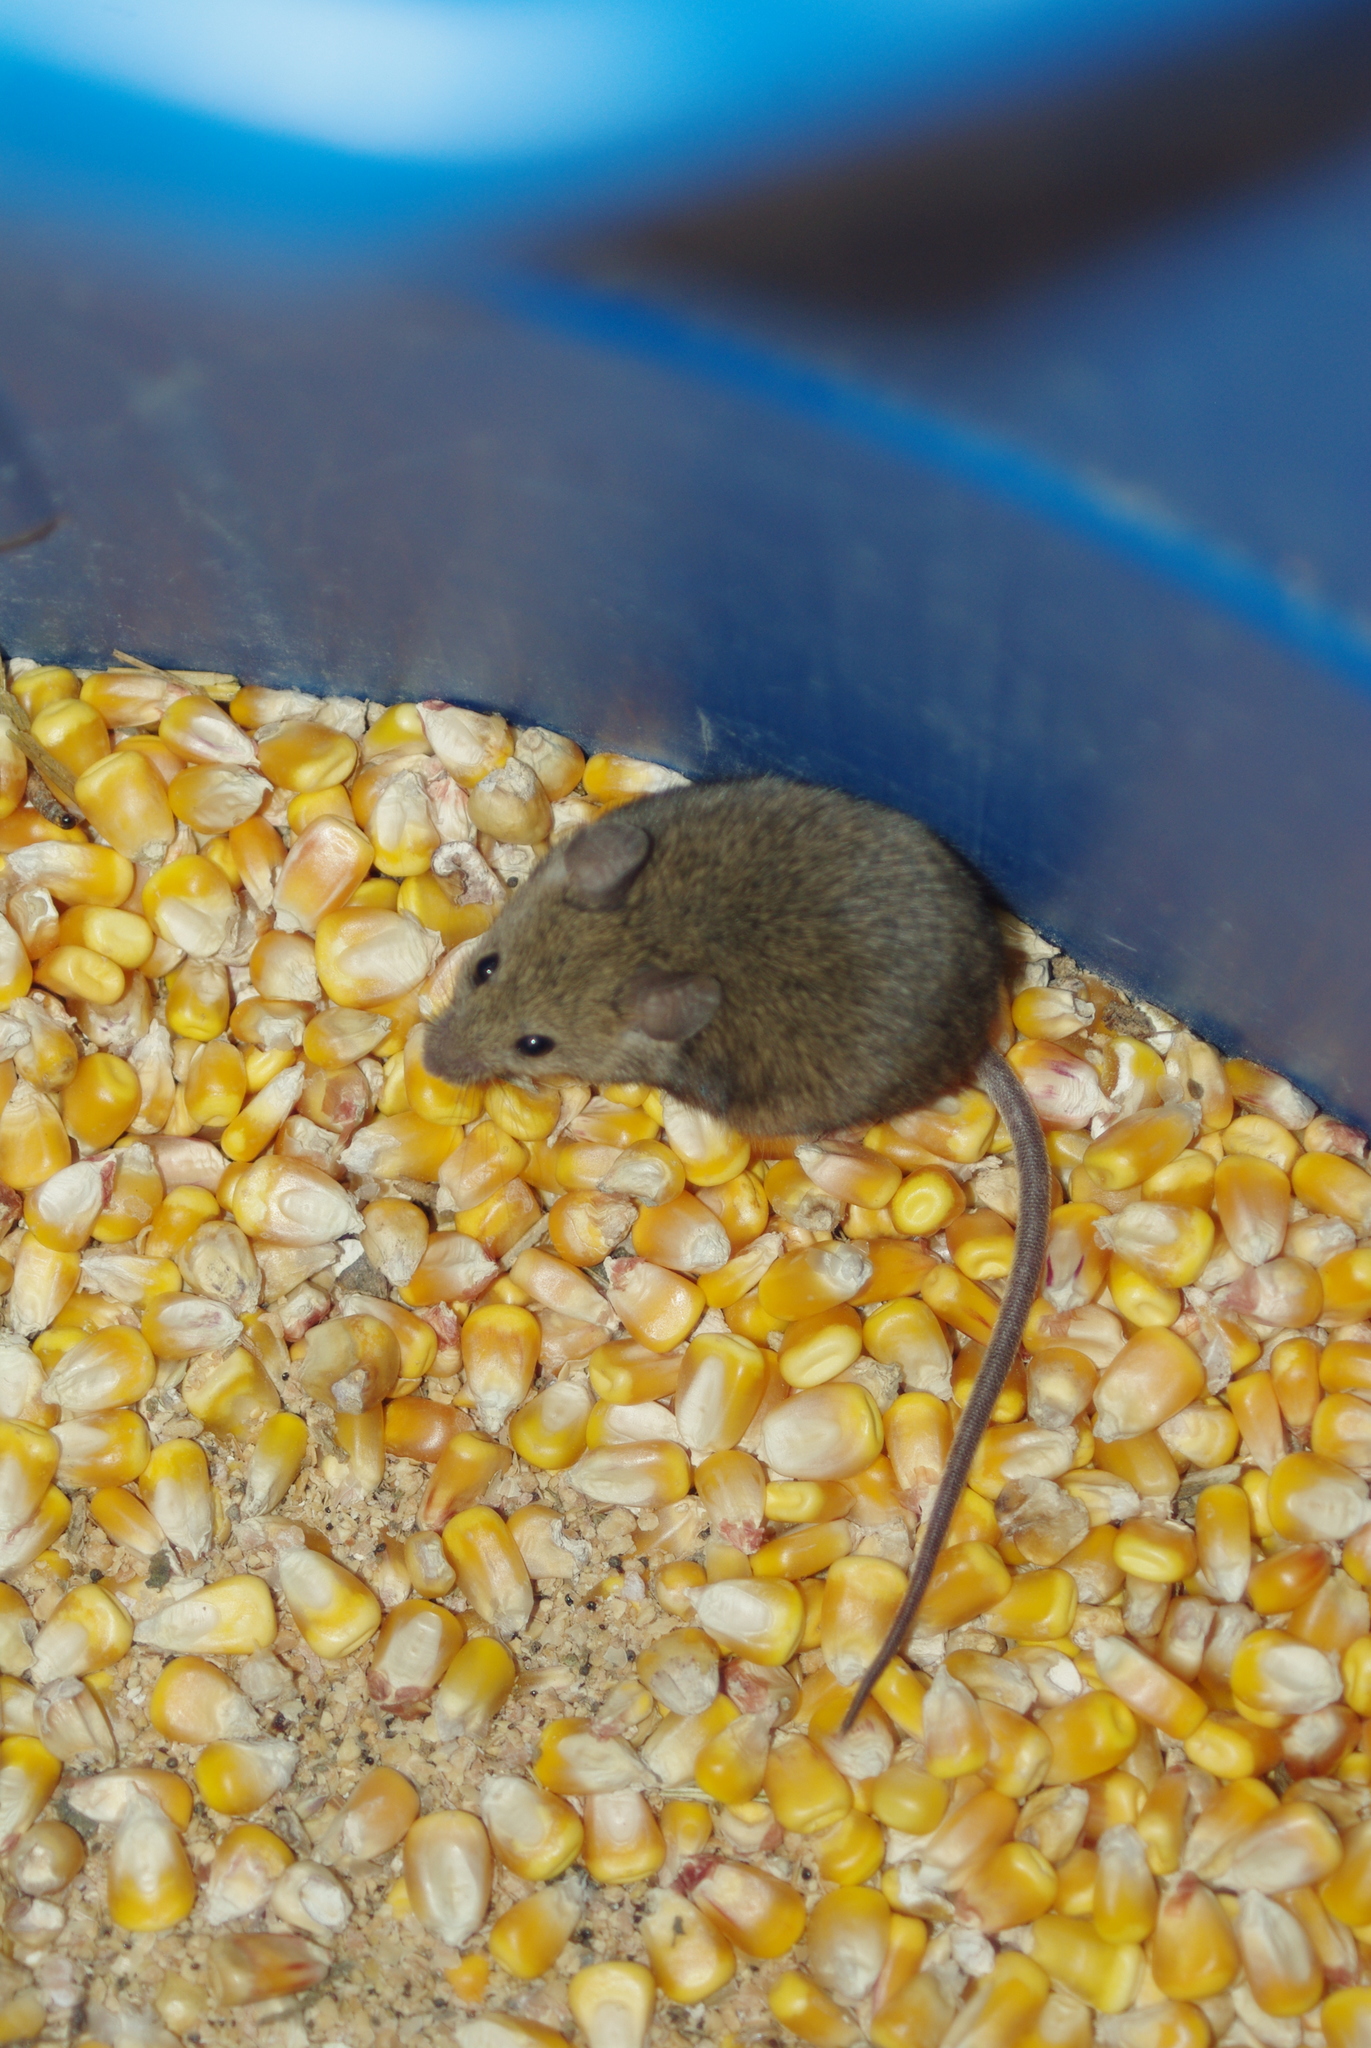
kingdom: Animalia
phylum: Chordata
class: Mammalia
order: Rodentia
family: Muridae
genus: Mus
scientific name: Mus musculus
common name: House mouse
